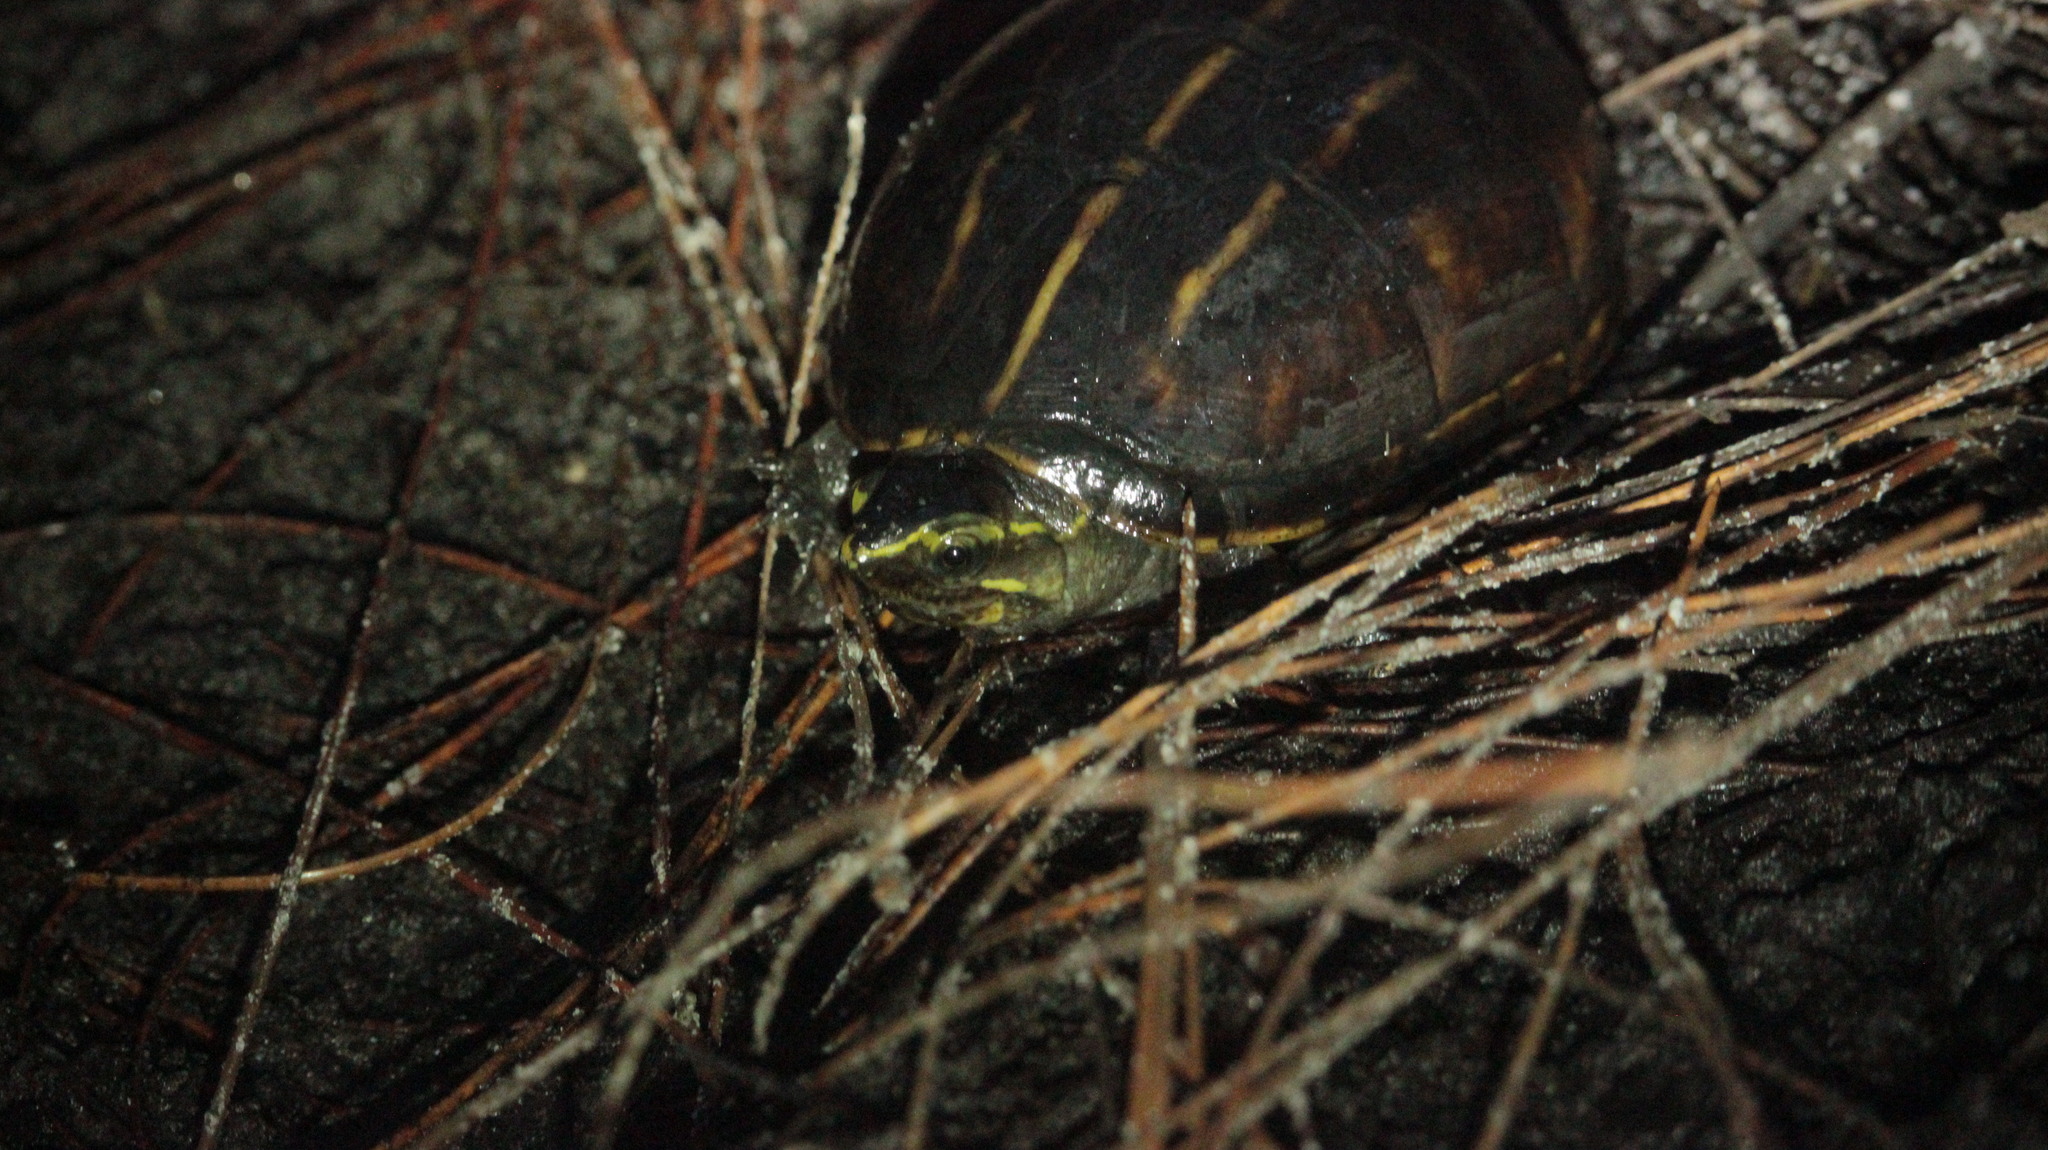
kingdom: Animalia
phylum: Chordata
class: Testudines
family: Kinosternidae
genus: Kinosternon
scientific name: Kinosternon baurii
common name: Striped mud turtle
